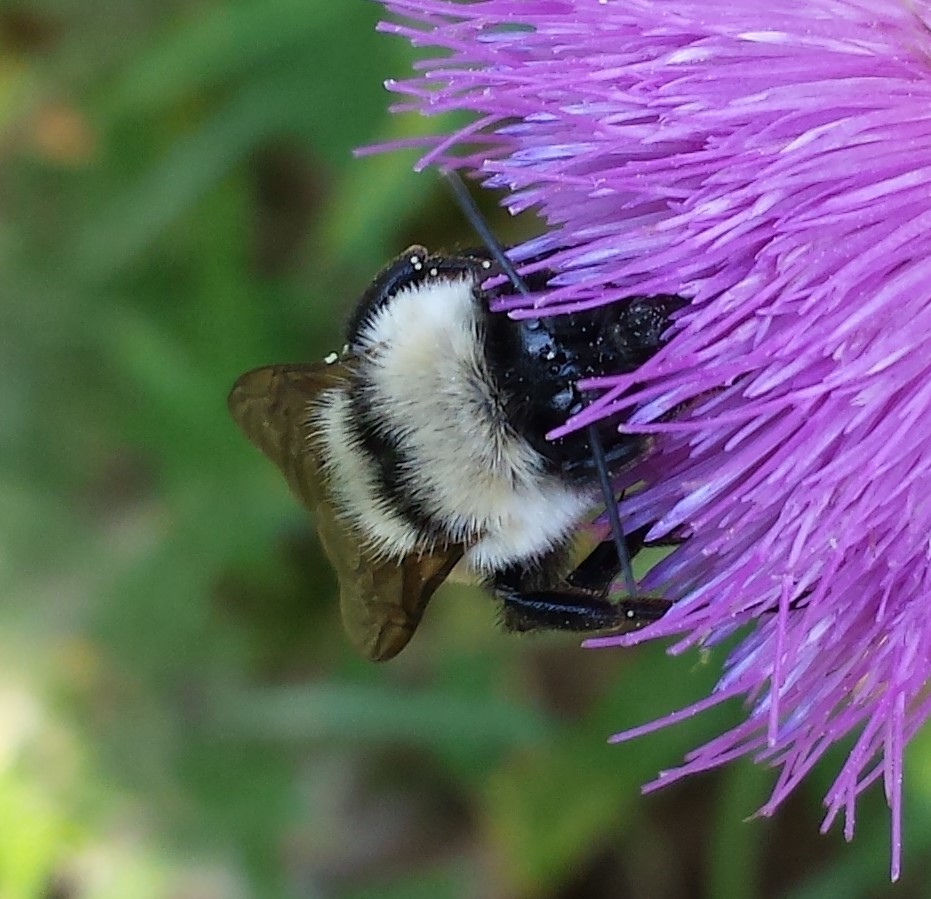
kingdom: Animalia
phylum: Arthropoda
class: Insecta
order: Hymenoptera
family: Apidae
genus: Bombus
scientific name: Bombus fervidus
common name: Yellow bumble bee
